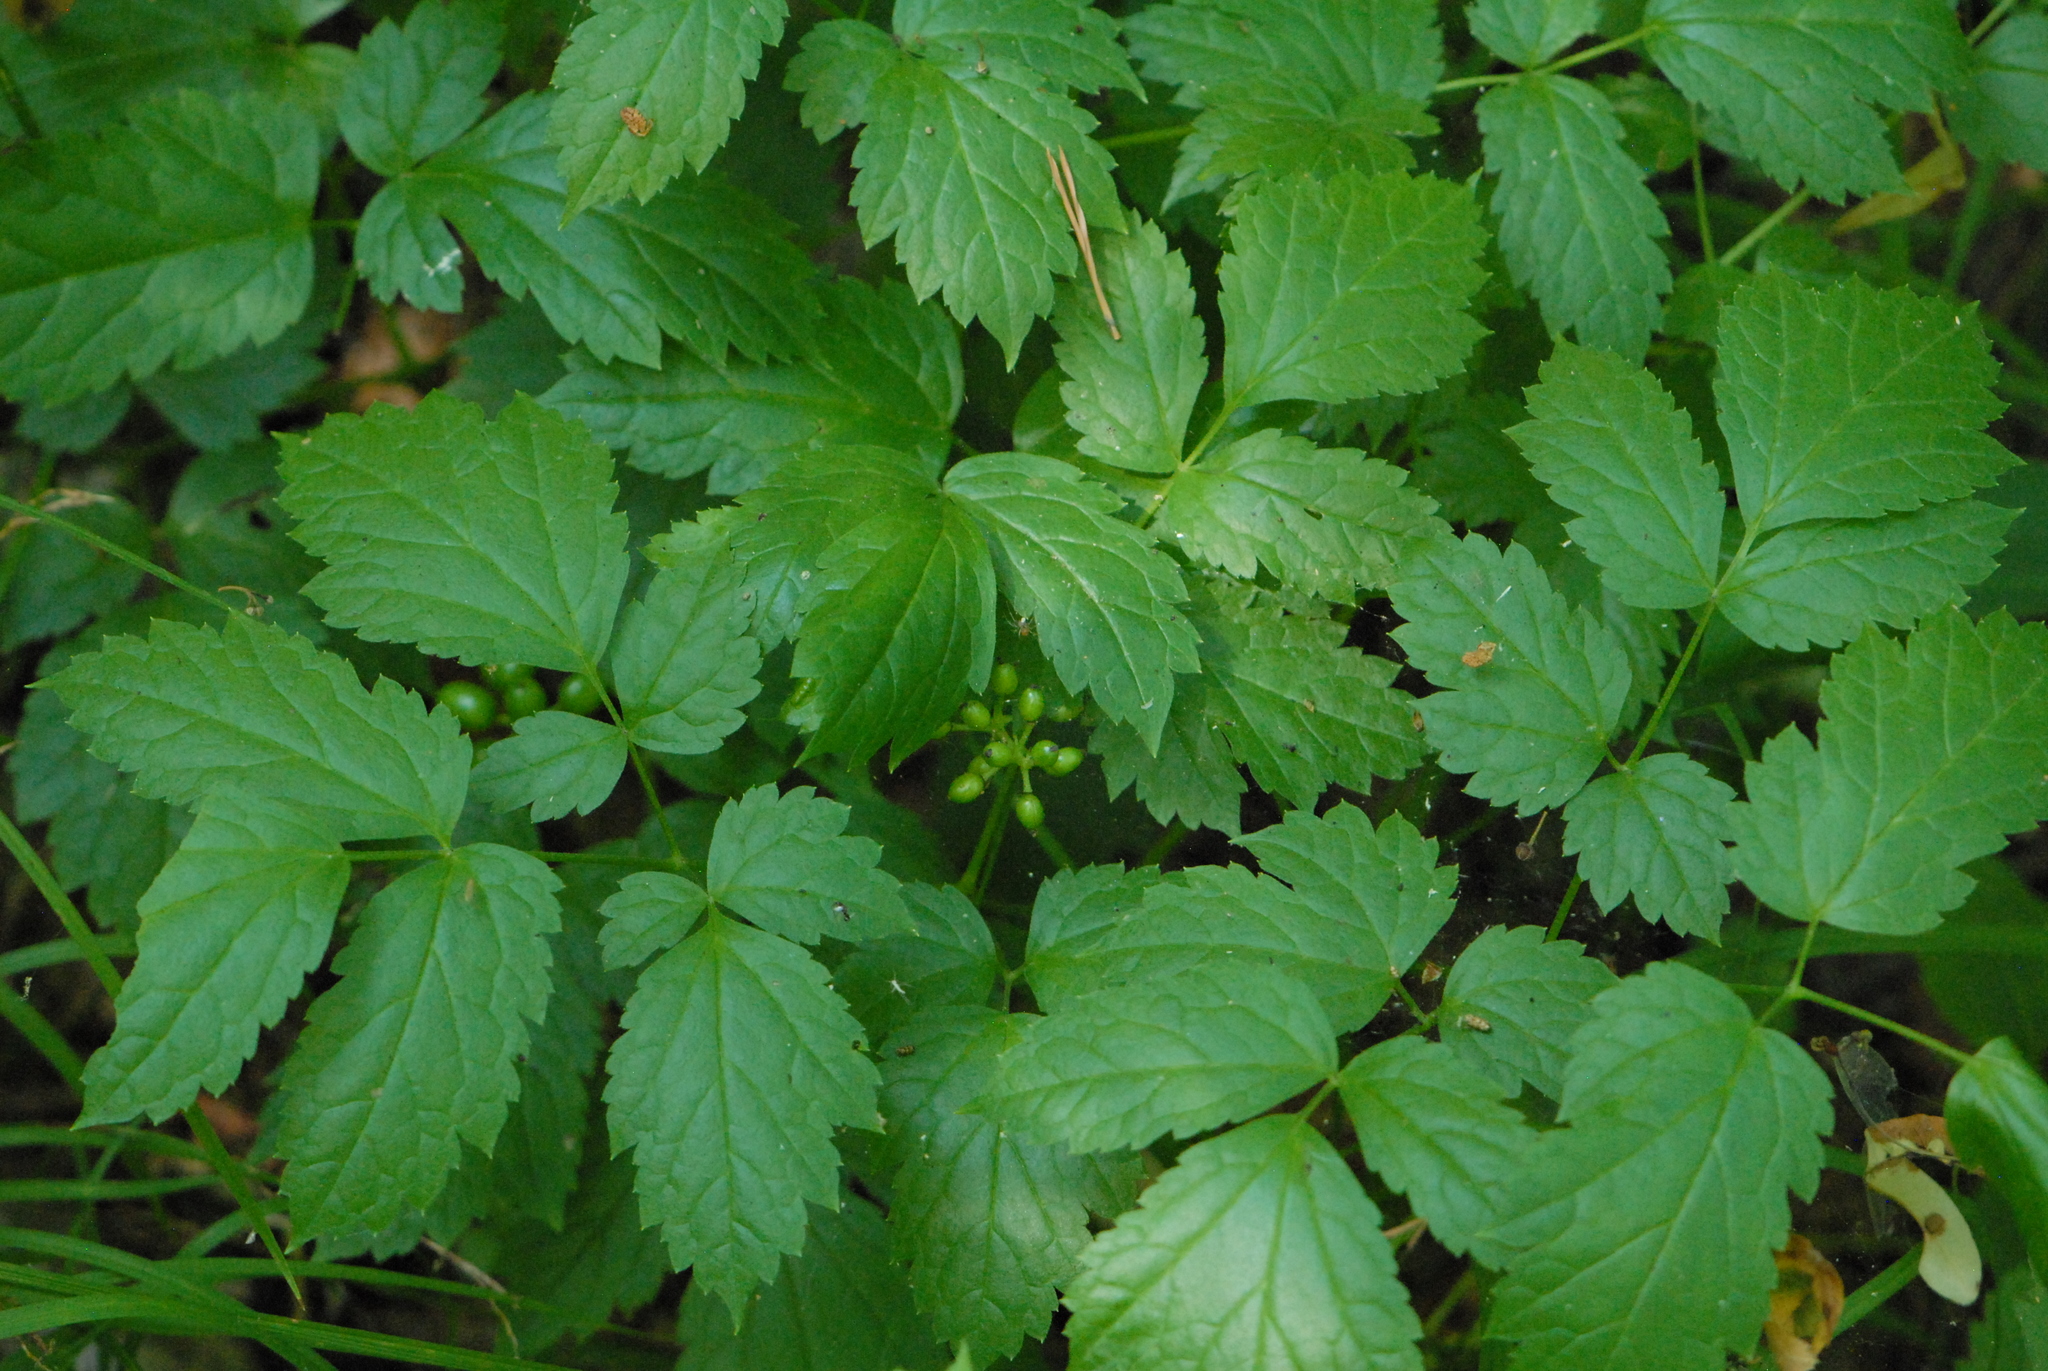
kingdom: Plantae
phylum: Tracheophyta
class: Magnoliopsida
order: Ranunculales
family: Ranunculaceae
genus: Actaea
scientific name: Actaea spicata
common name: Baneberry
